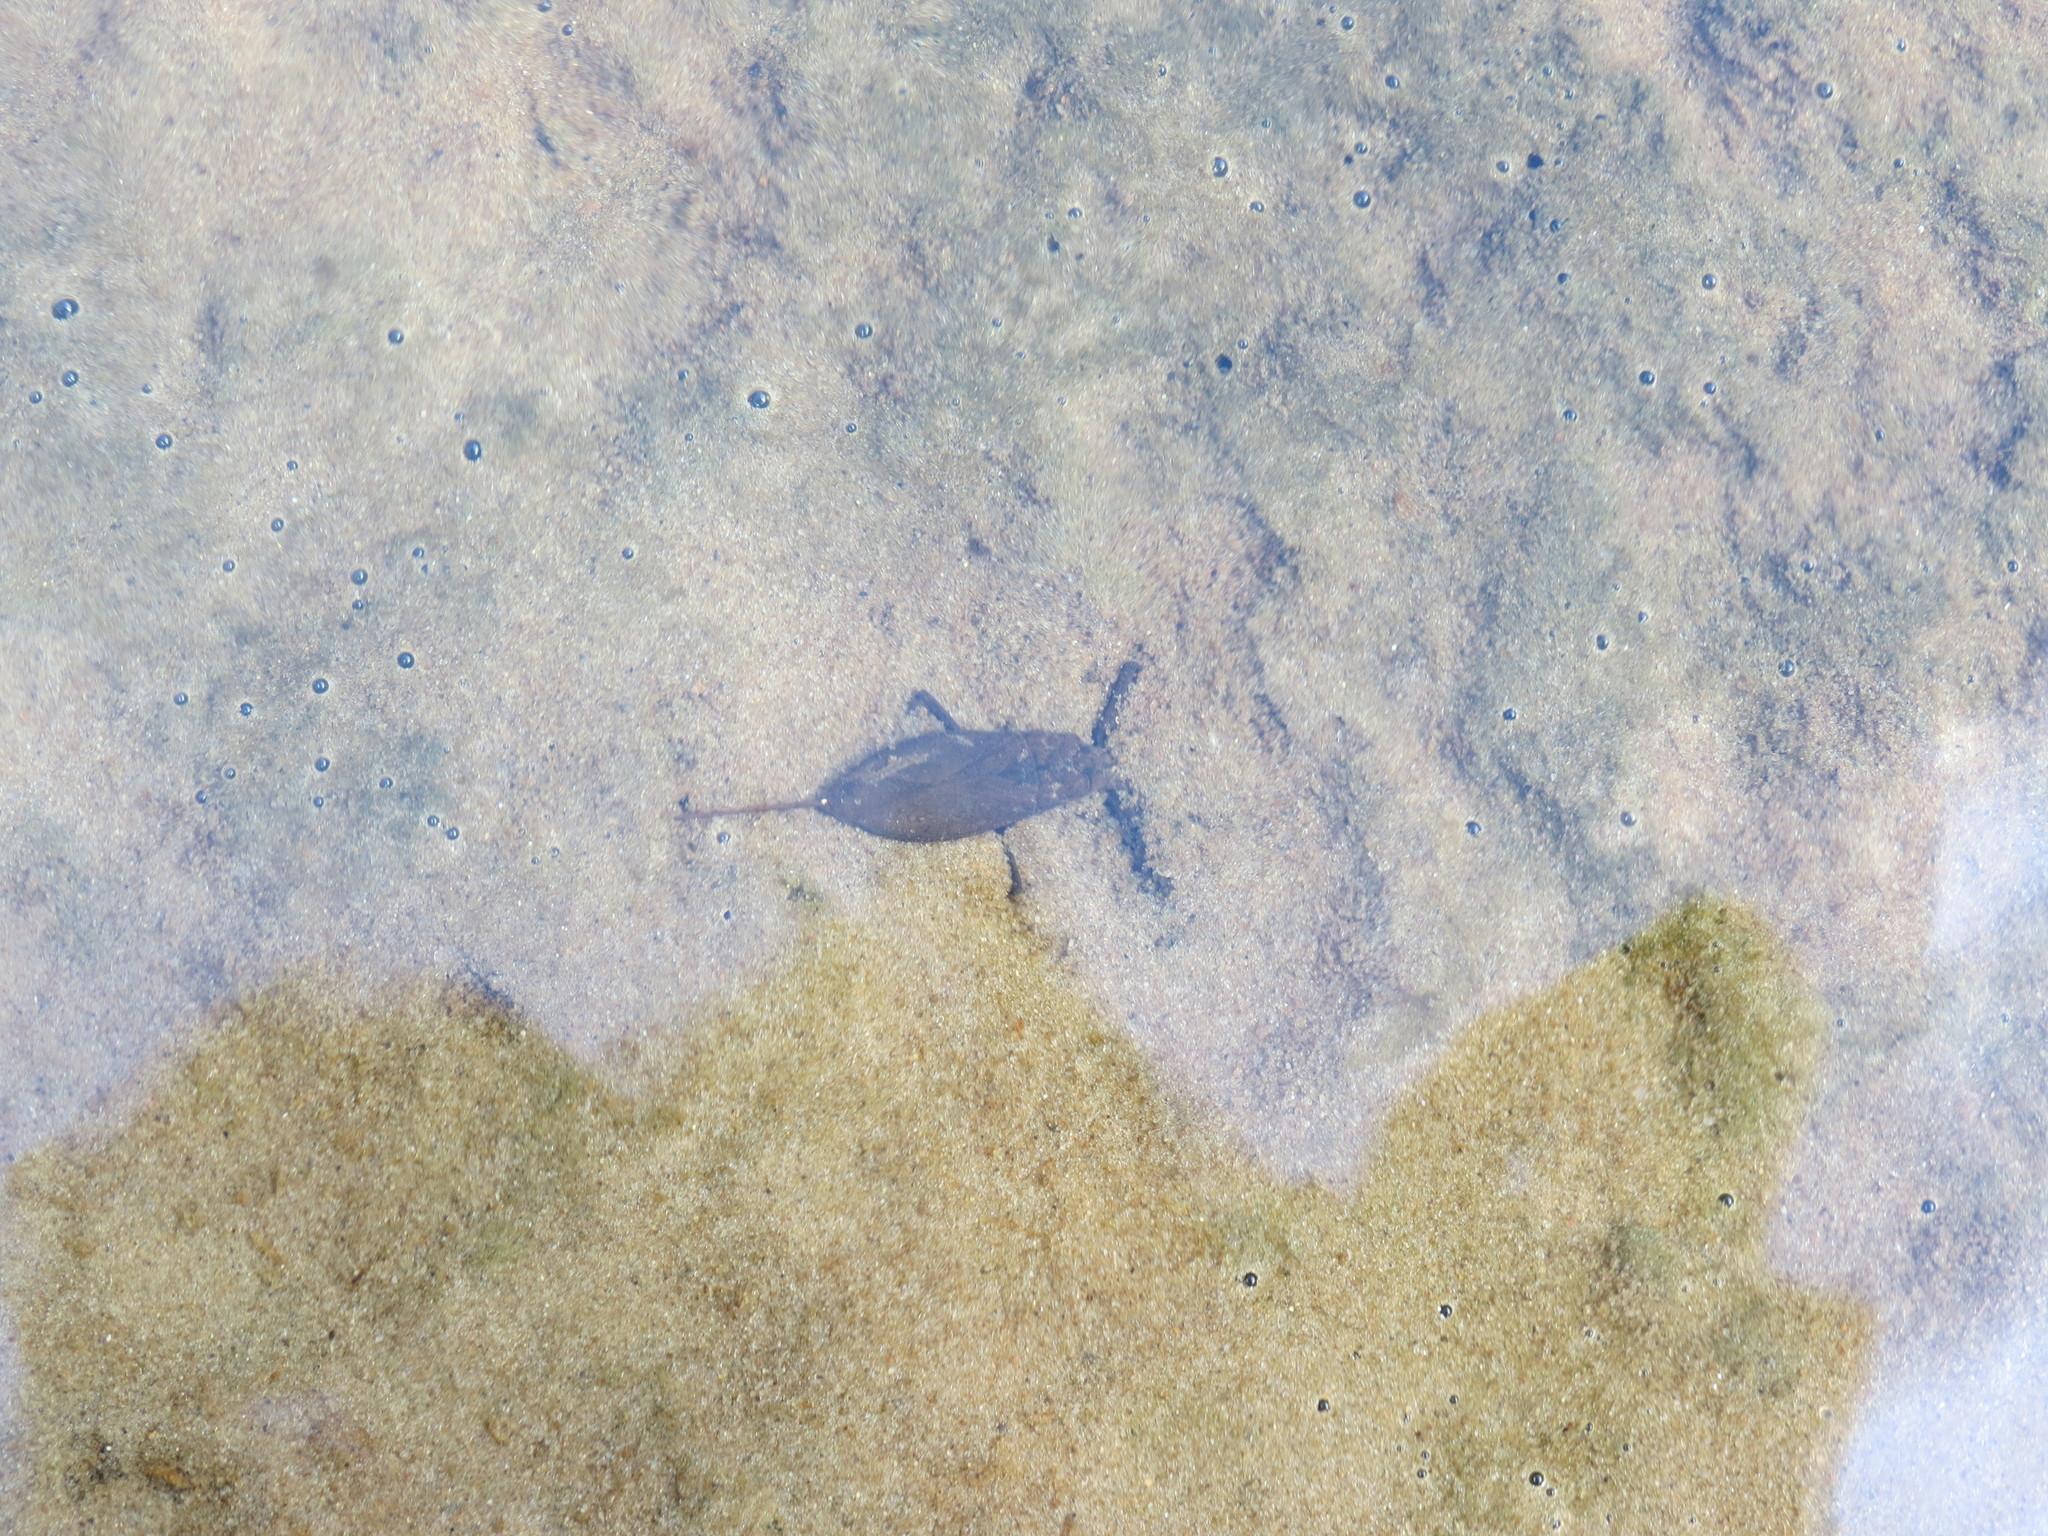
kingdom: Animalia
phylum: Arthropoda
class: Insecta
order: Hemiptera
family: Nepidae
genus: Nepa
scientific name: Nepa cinerea
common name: Water scorpion
